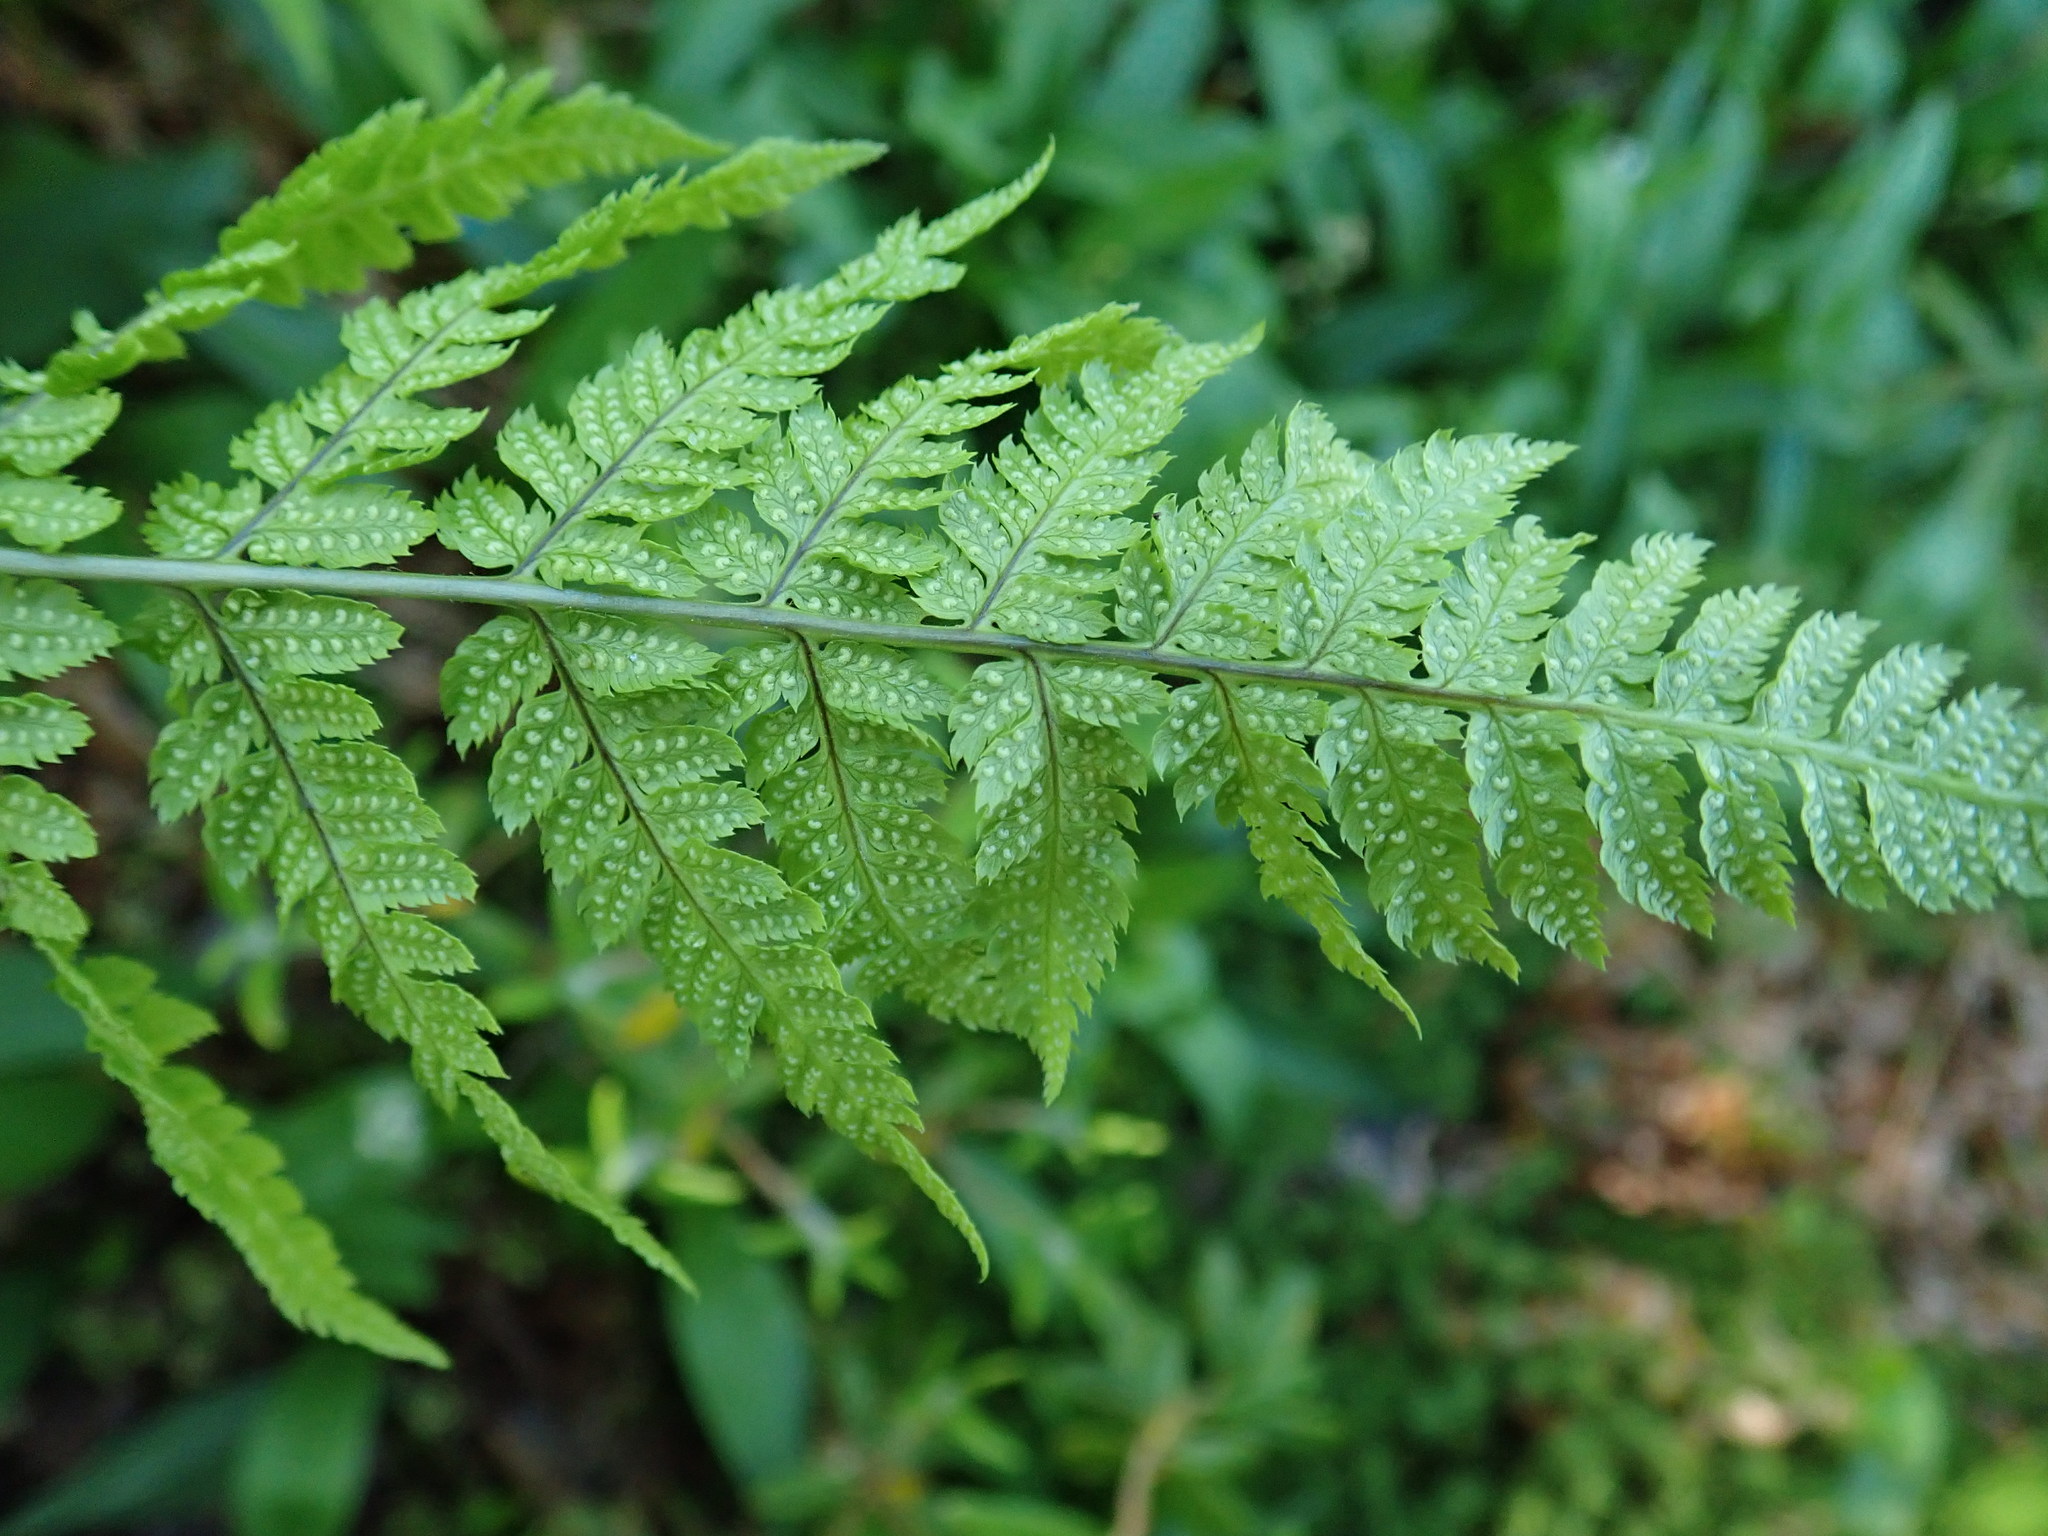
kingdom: Plantae
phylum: Tracheophyta
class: Polypodiopsida
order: Polypodiales
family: Dryopteridaceae
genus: Dryopteris
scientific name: Dryopteris carthusiana
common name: Narrow buckler-fern
